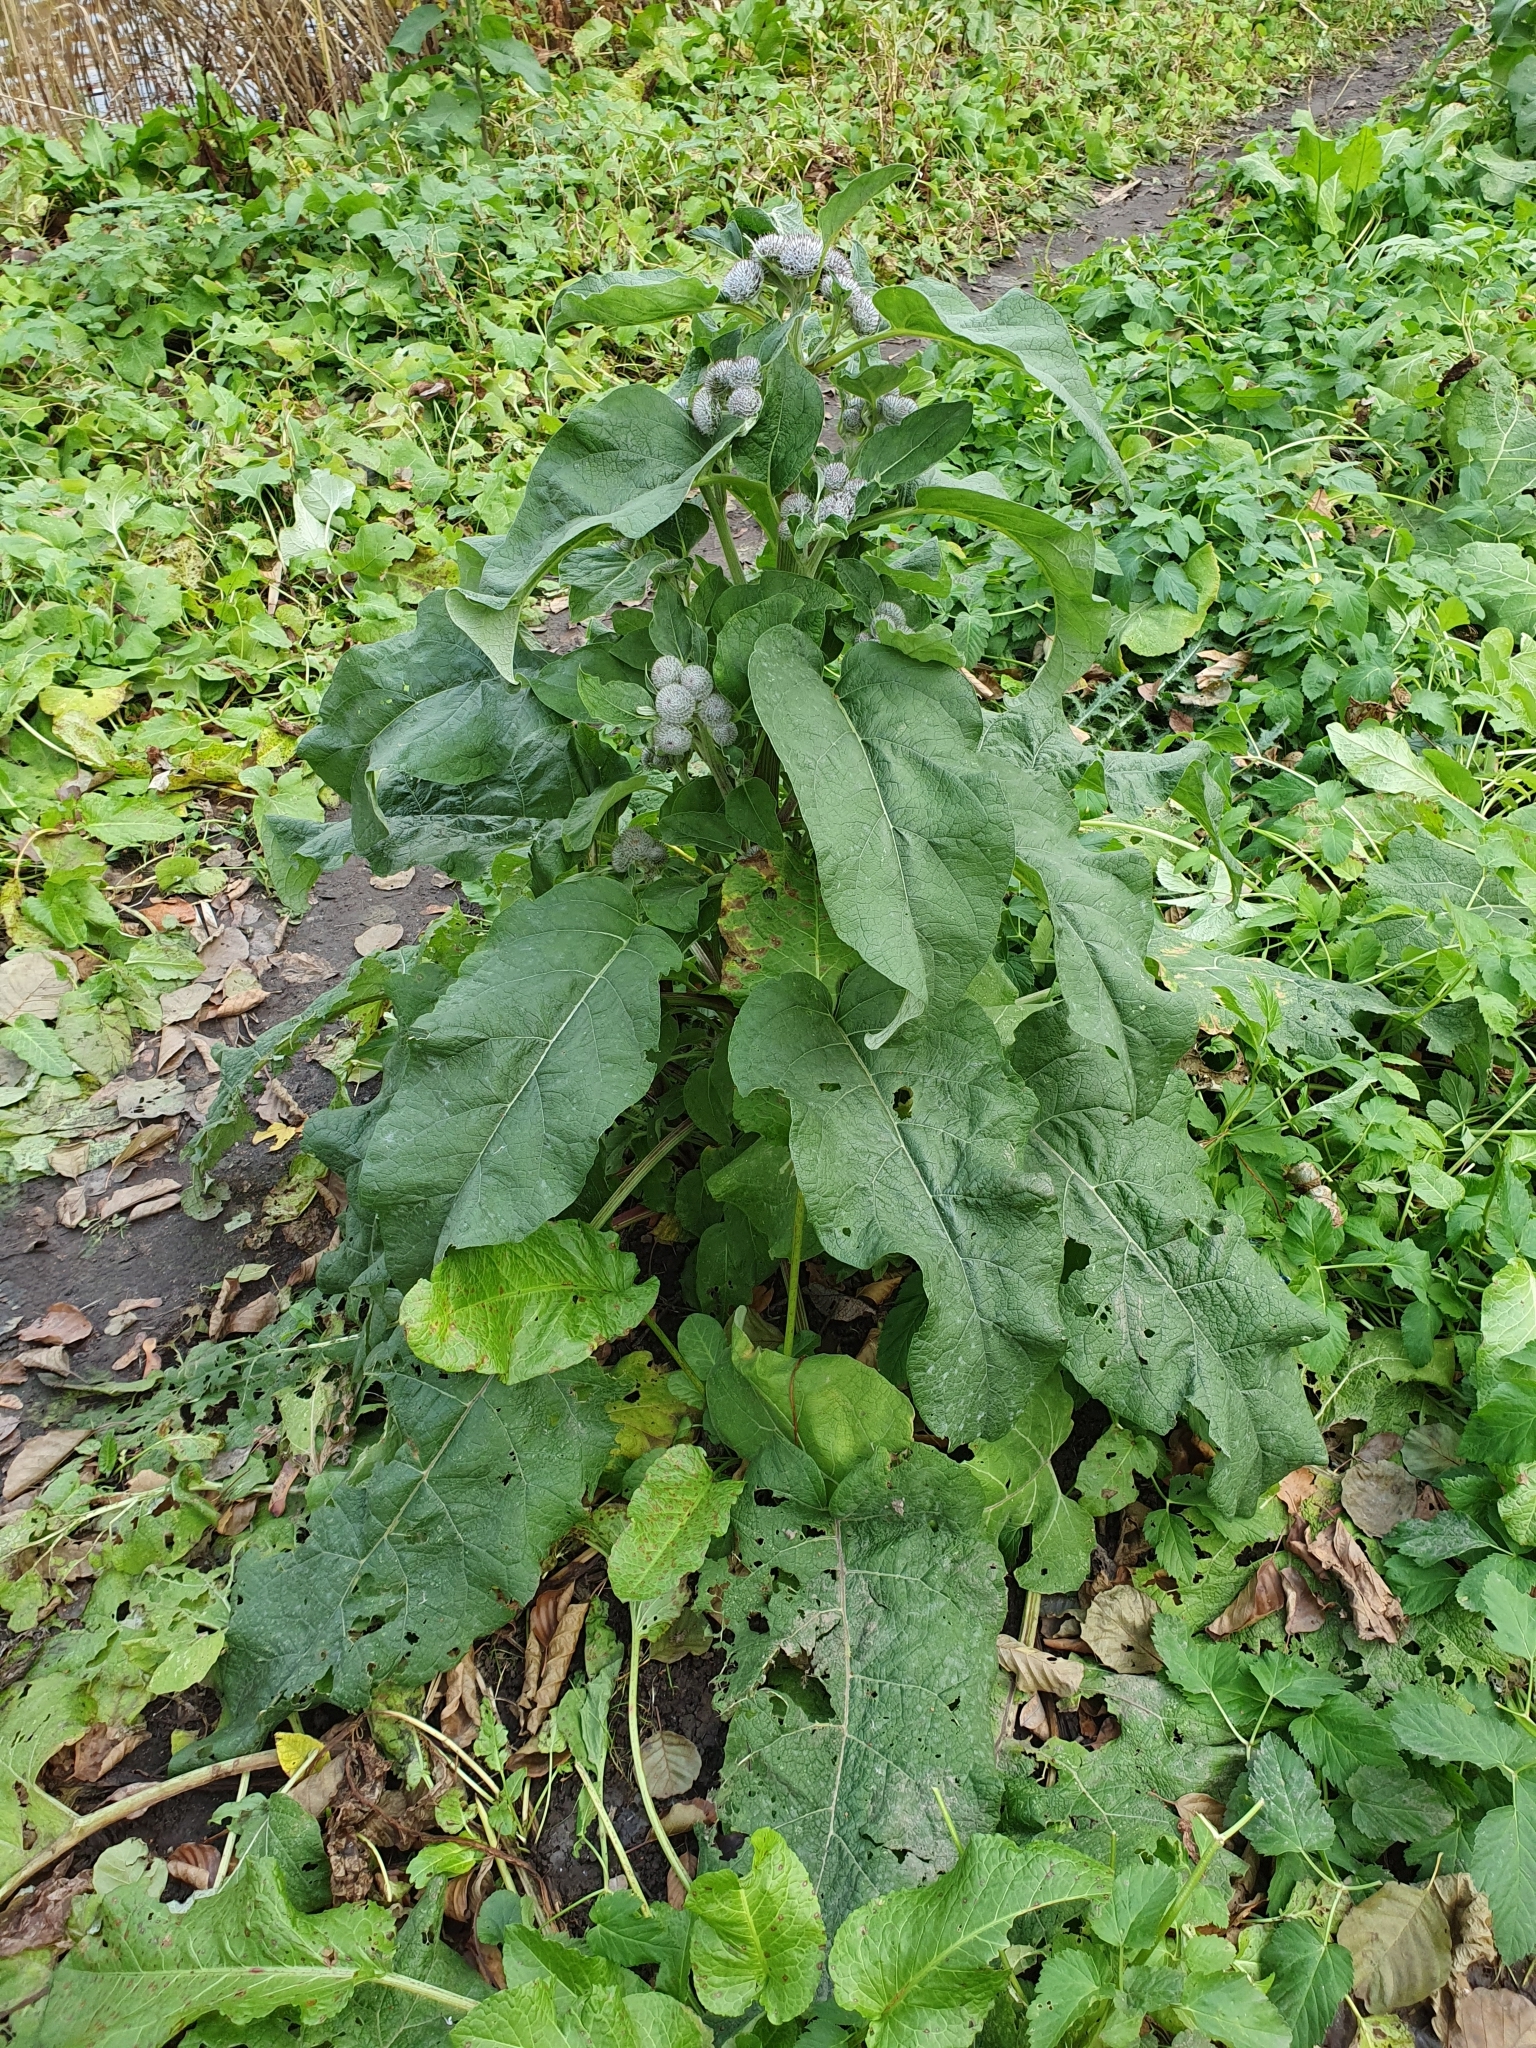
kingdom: Plantae
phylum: Tracheophyta
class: Magnoliopsida
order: Asterales
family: Asteraceae
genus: Arctium
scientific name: Arctium tomentosum
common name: Woolly burdock
